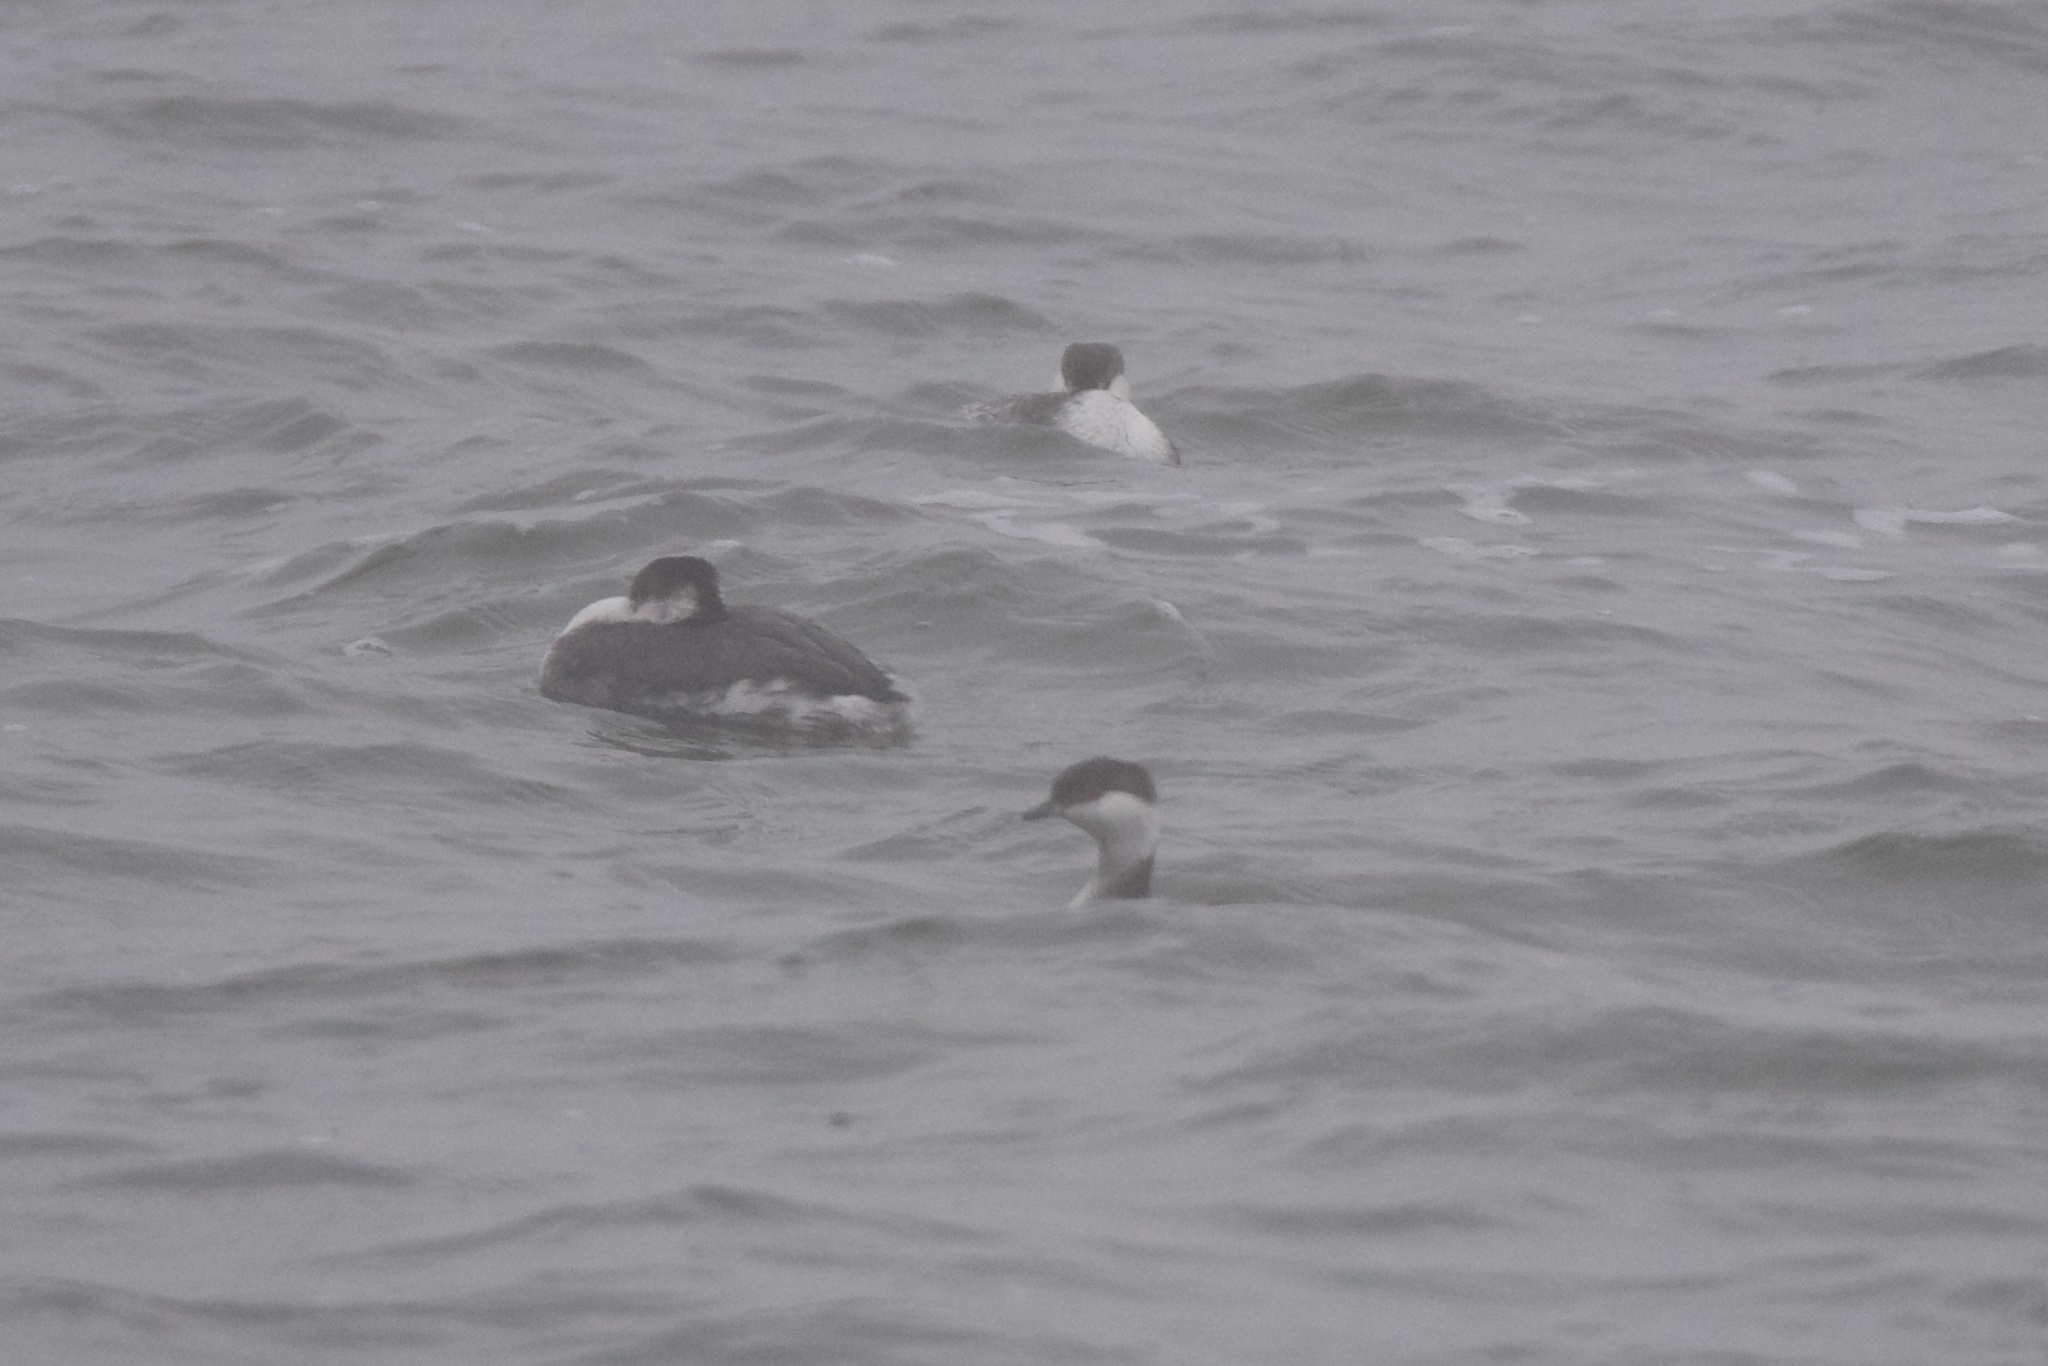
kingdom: Animalia
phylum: Chordata
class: Aves
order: Podicipediformes
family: Podicipedidae
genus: Podiceps
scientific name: Podiceps auritus
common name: Horned grebe
